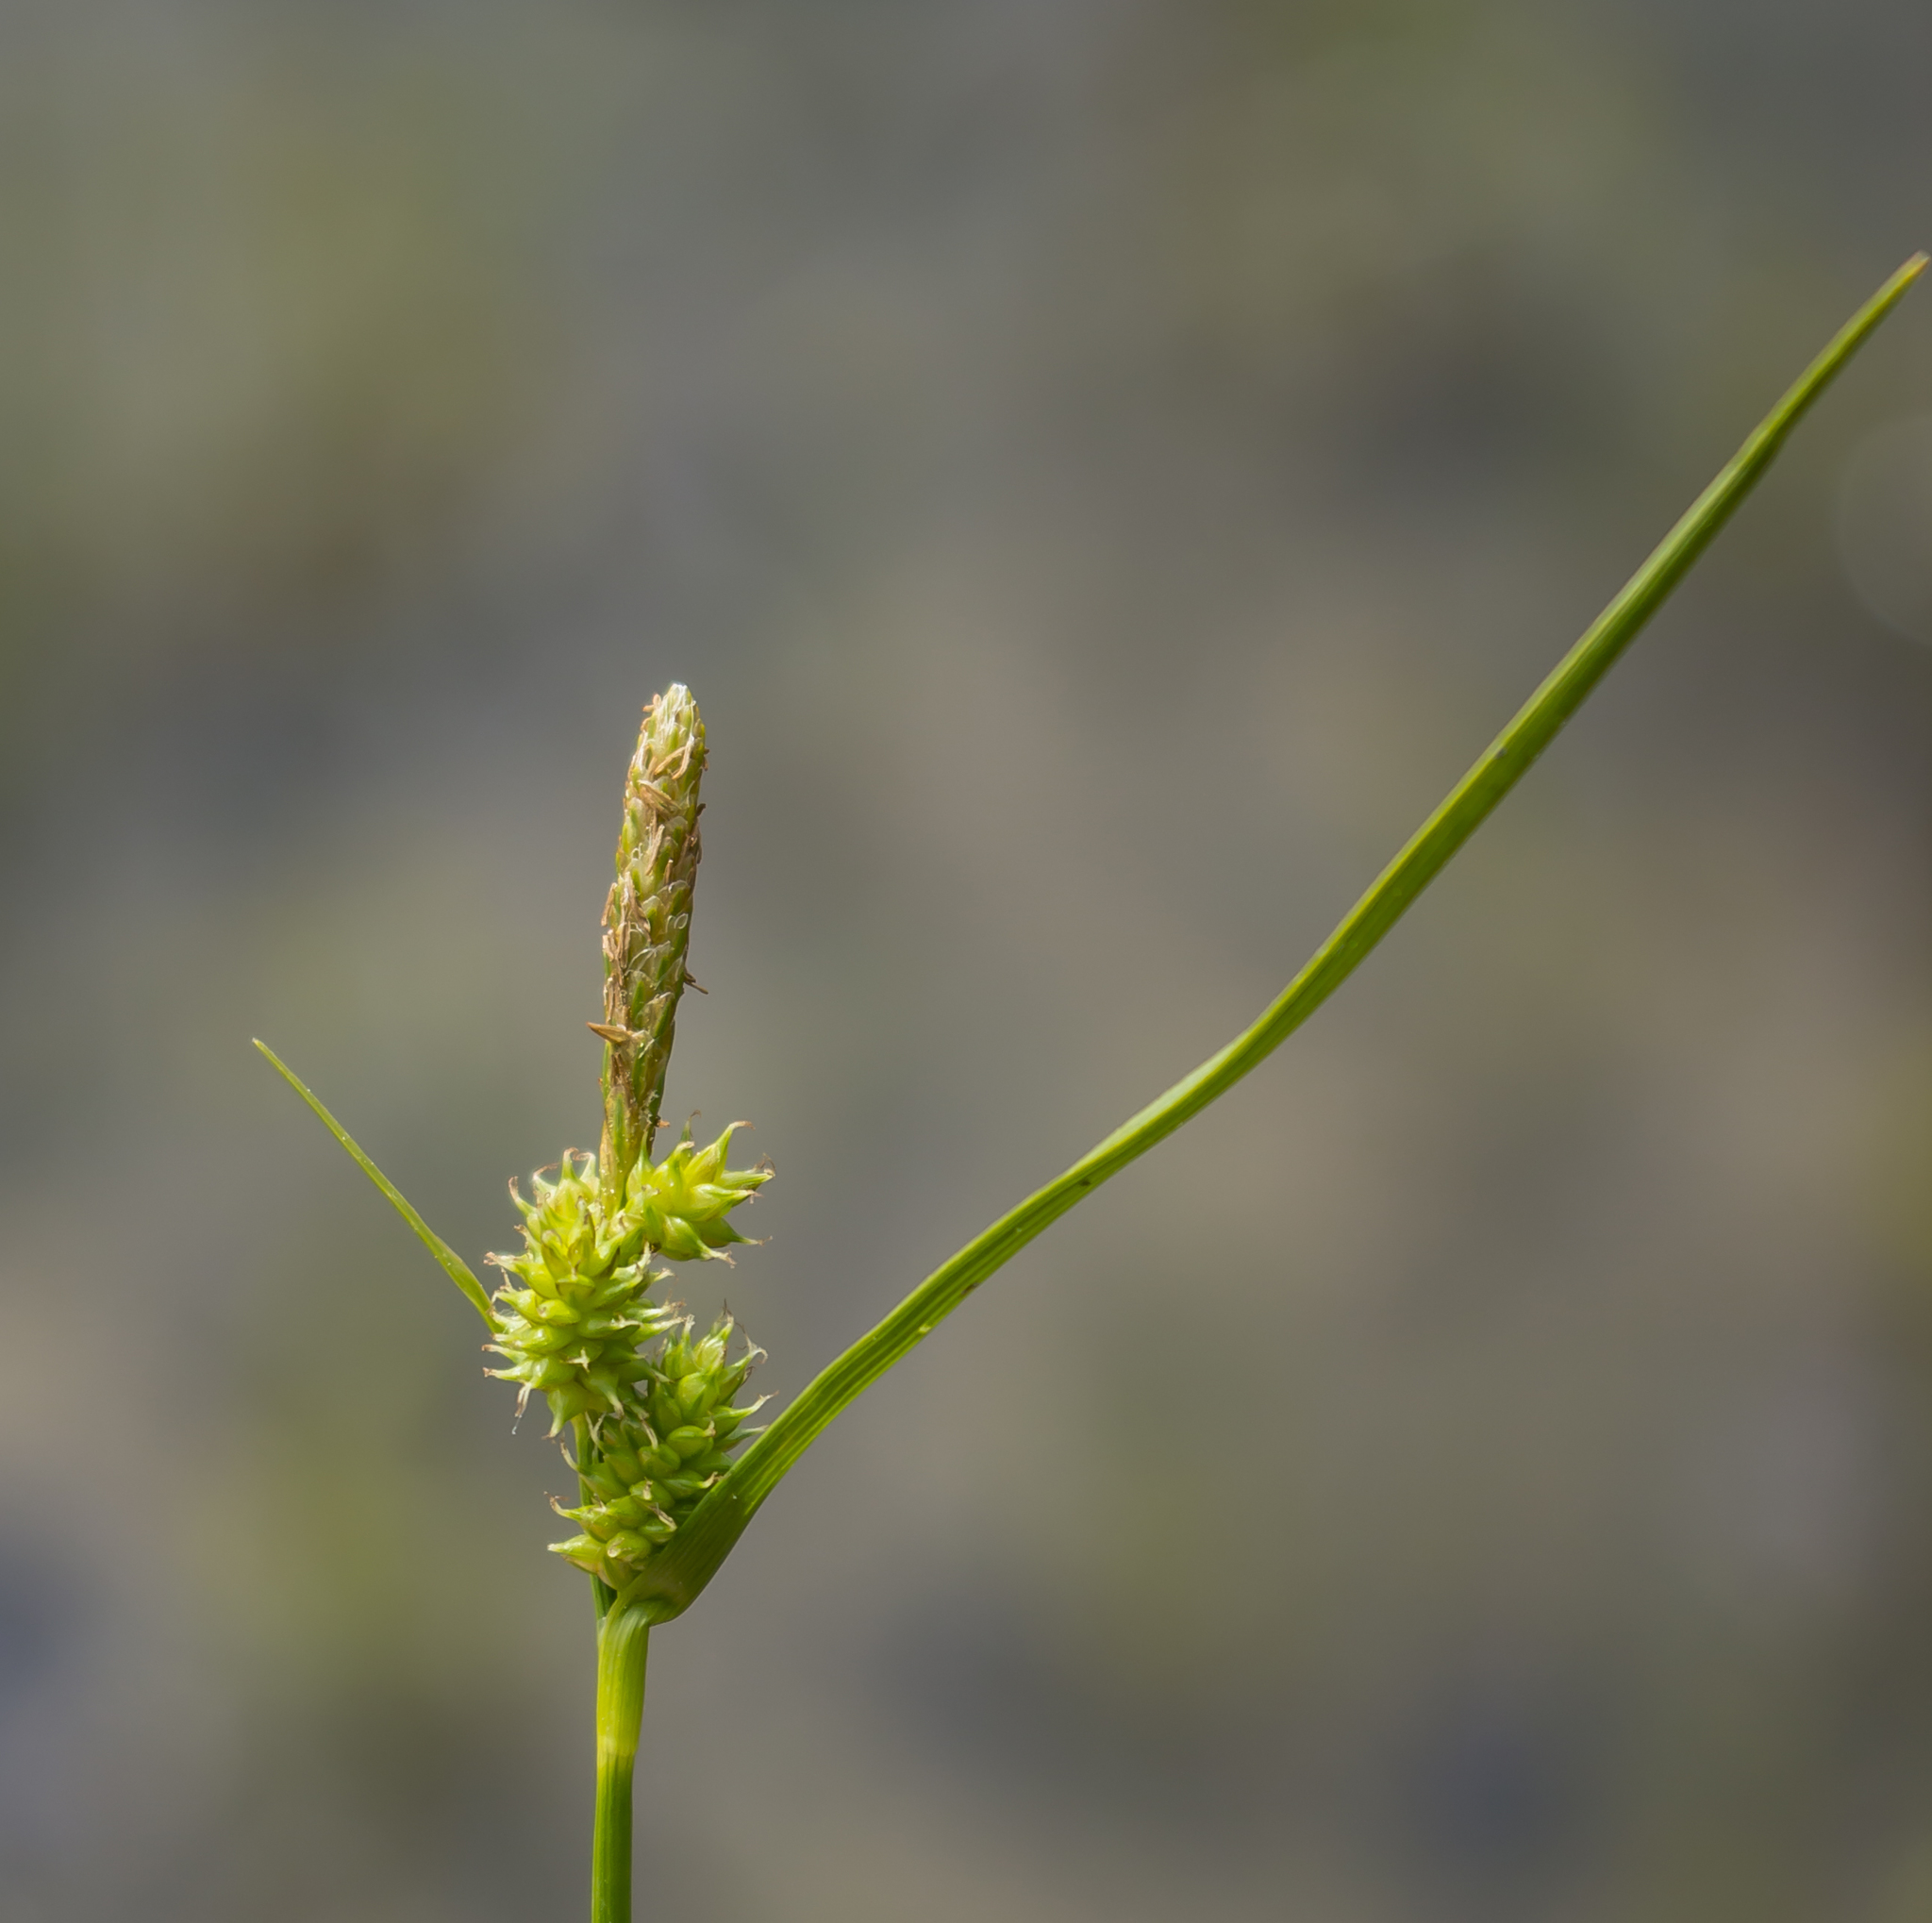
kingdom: Plantae
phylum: Tracheophyta
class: Liliopsida
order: Poales
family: Cyperaceae
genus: Carex
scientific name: Carex
